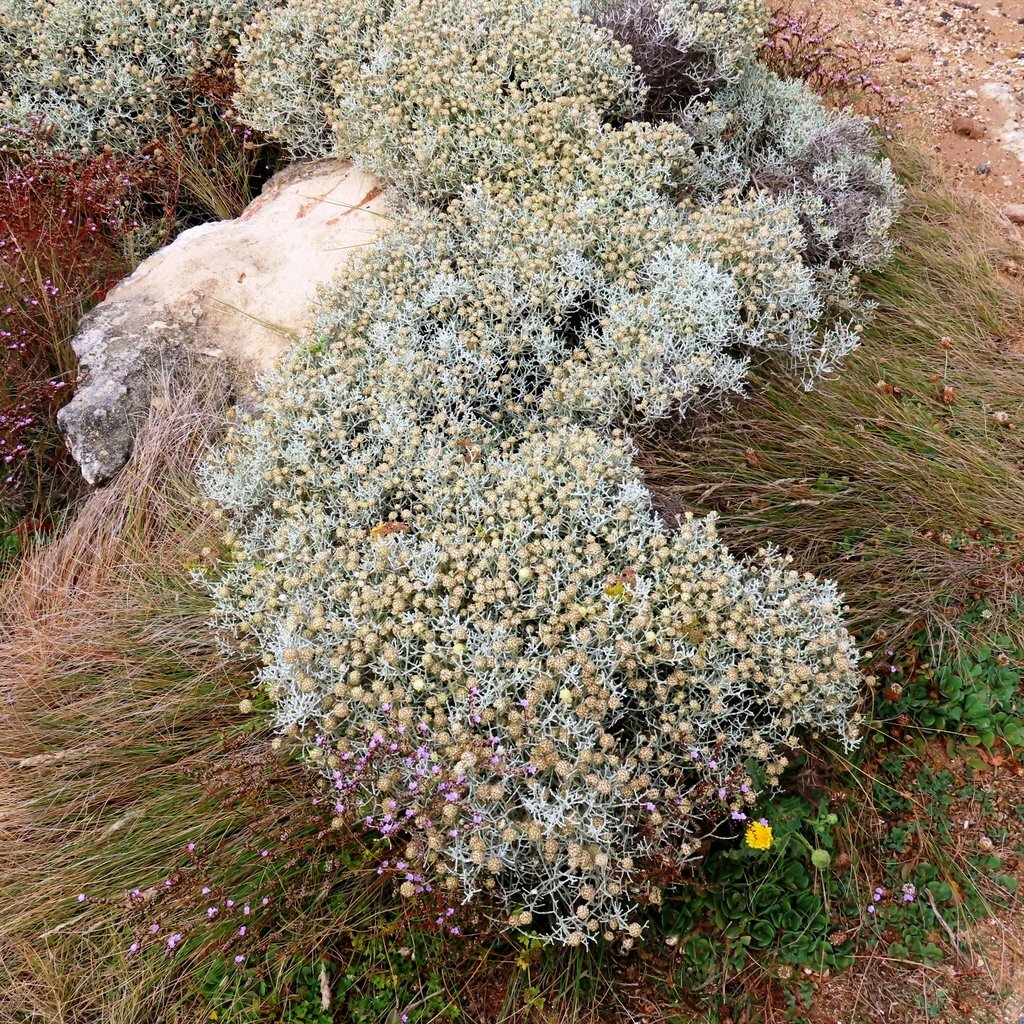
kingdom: Plantae
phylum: Tracheophyta
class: Magnoliopsida
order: Asterales
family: Asteraceae
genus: Calocephalus
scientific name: Calocephalus brownii
